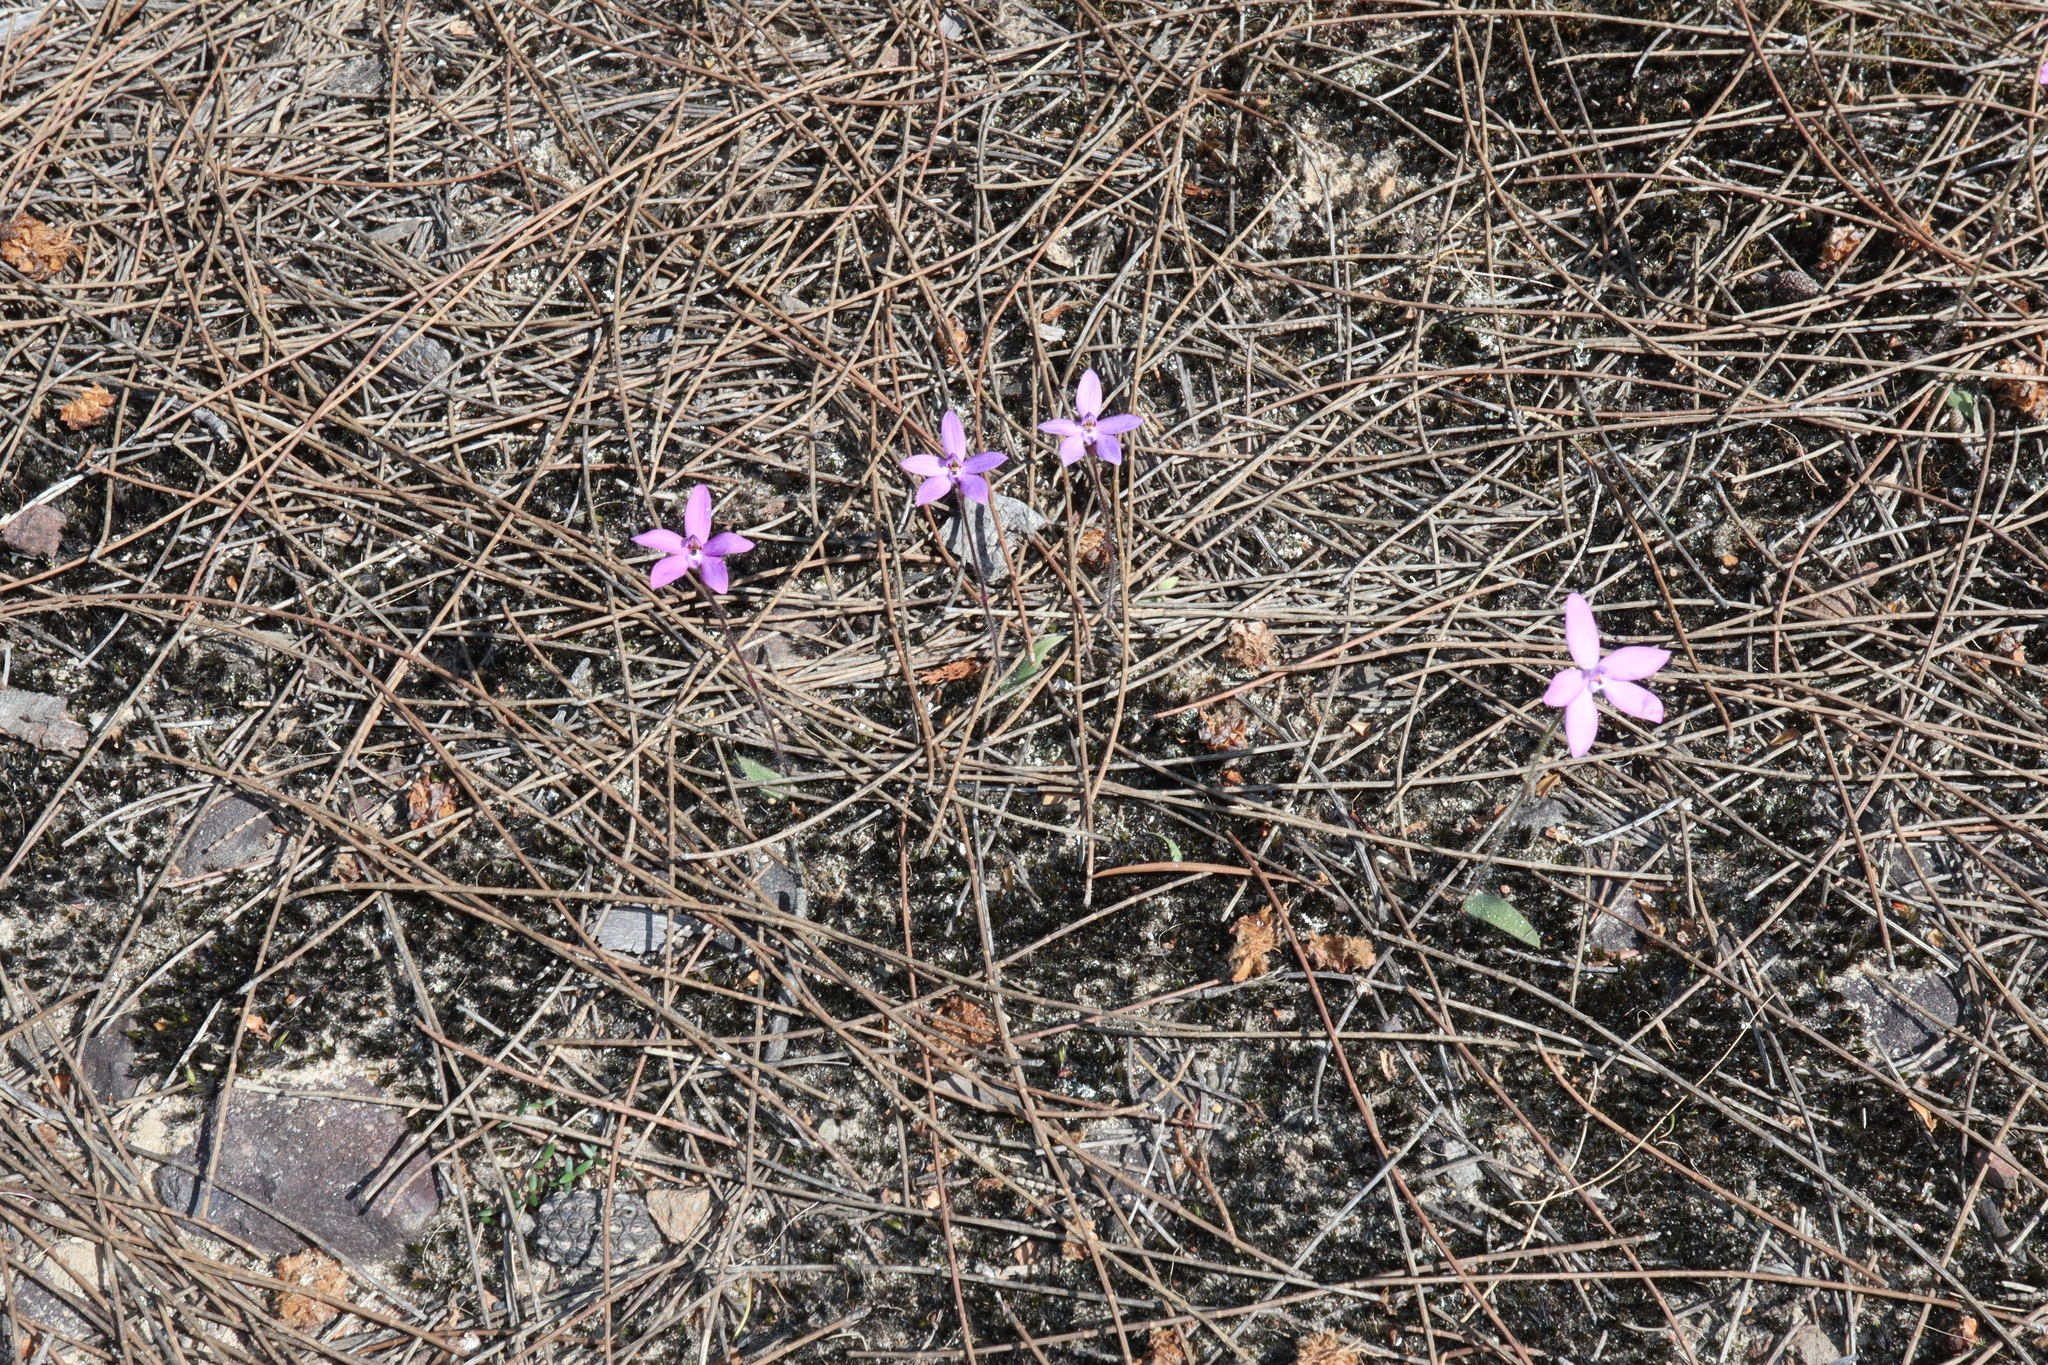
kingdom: Plantae
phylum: Tracheophyta
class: Liliopsida
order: Asparagales
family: Orchidaceae
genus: Caladenia
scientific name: Caladenia minorata
